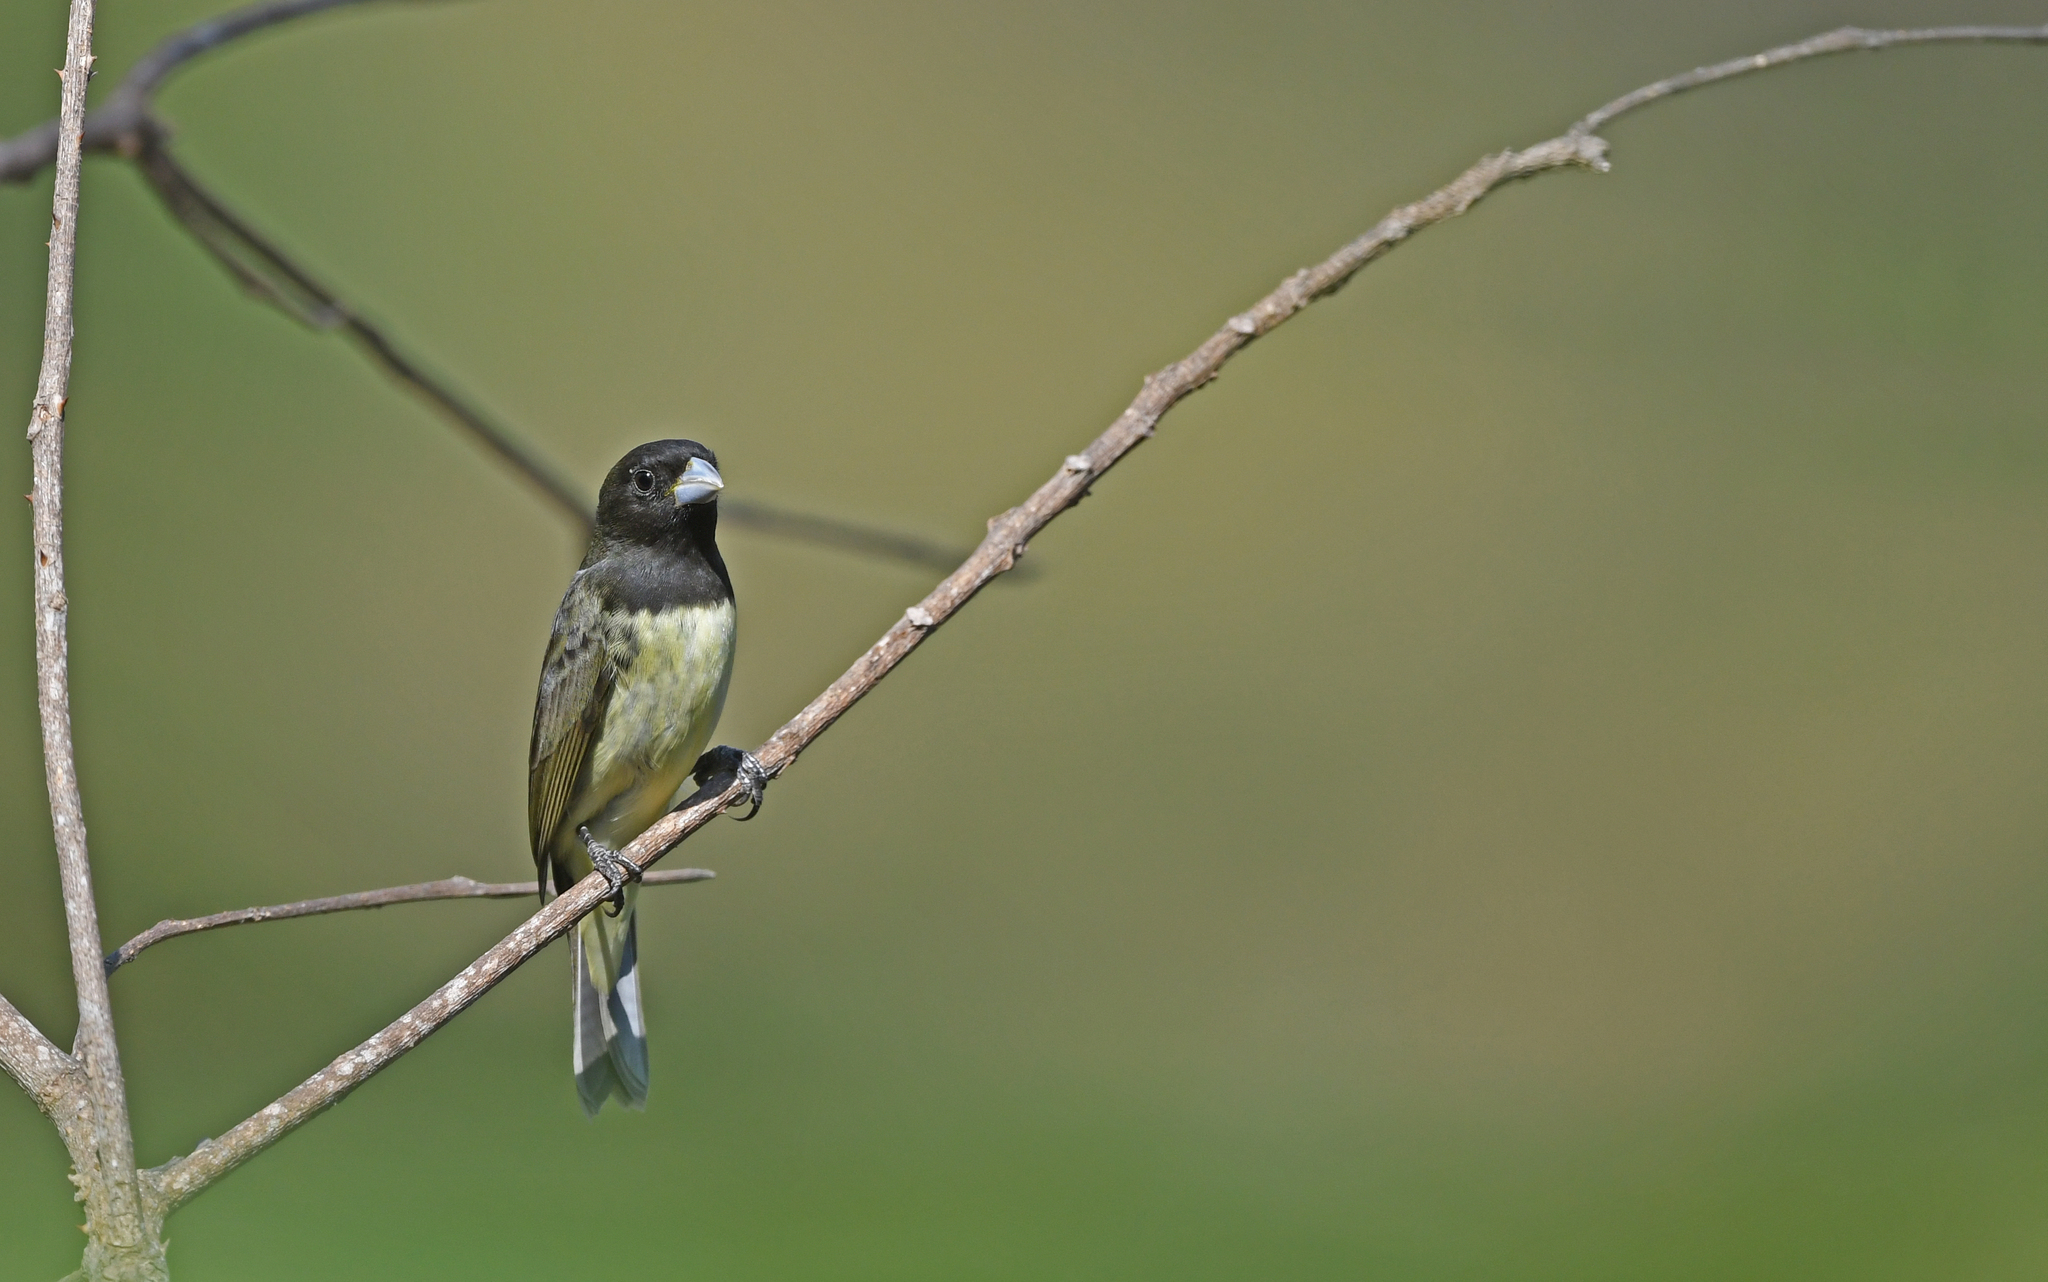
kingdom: Animalia
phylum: Chordata
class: Aves
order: Passeriformes
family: Thraupidae
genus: Sporophila
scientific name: Sporophila nigricollis
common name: Yellow-bellied seedeater
